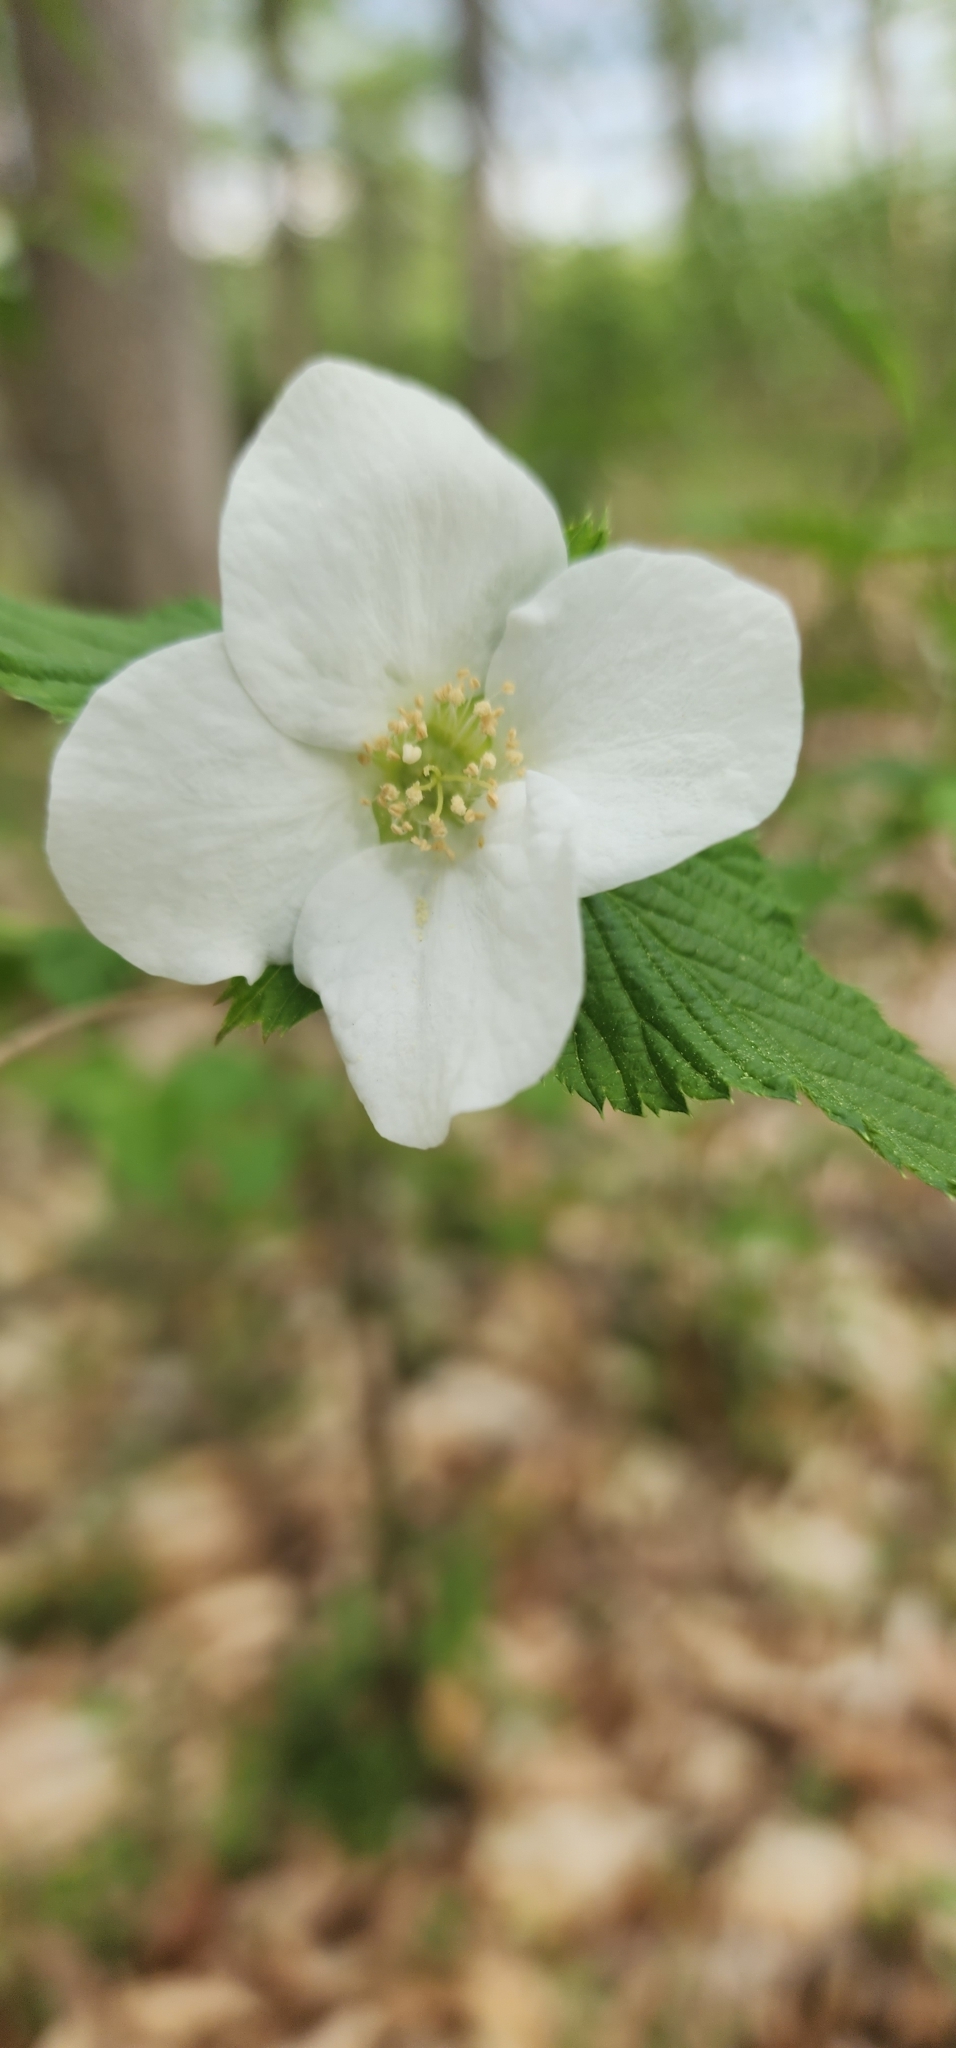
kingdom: Plantae
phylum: Tracheophyta
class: Magnoliopsida
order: Rosales
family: Rosaceae
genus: Rhodotypos
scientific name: Rhodotypos scandens
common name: Jetbead
